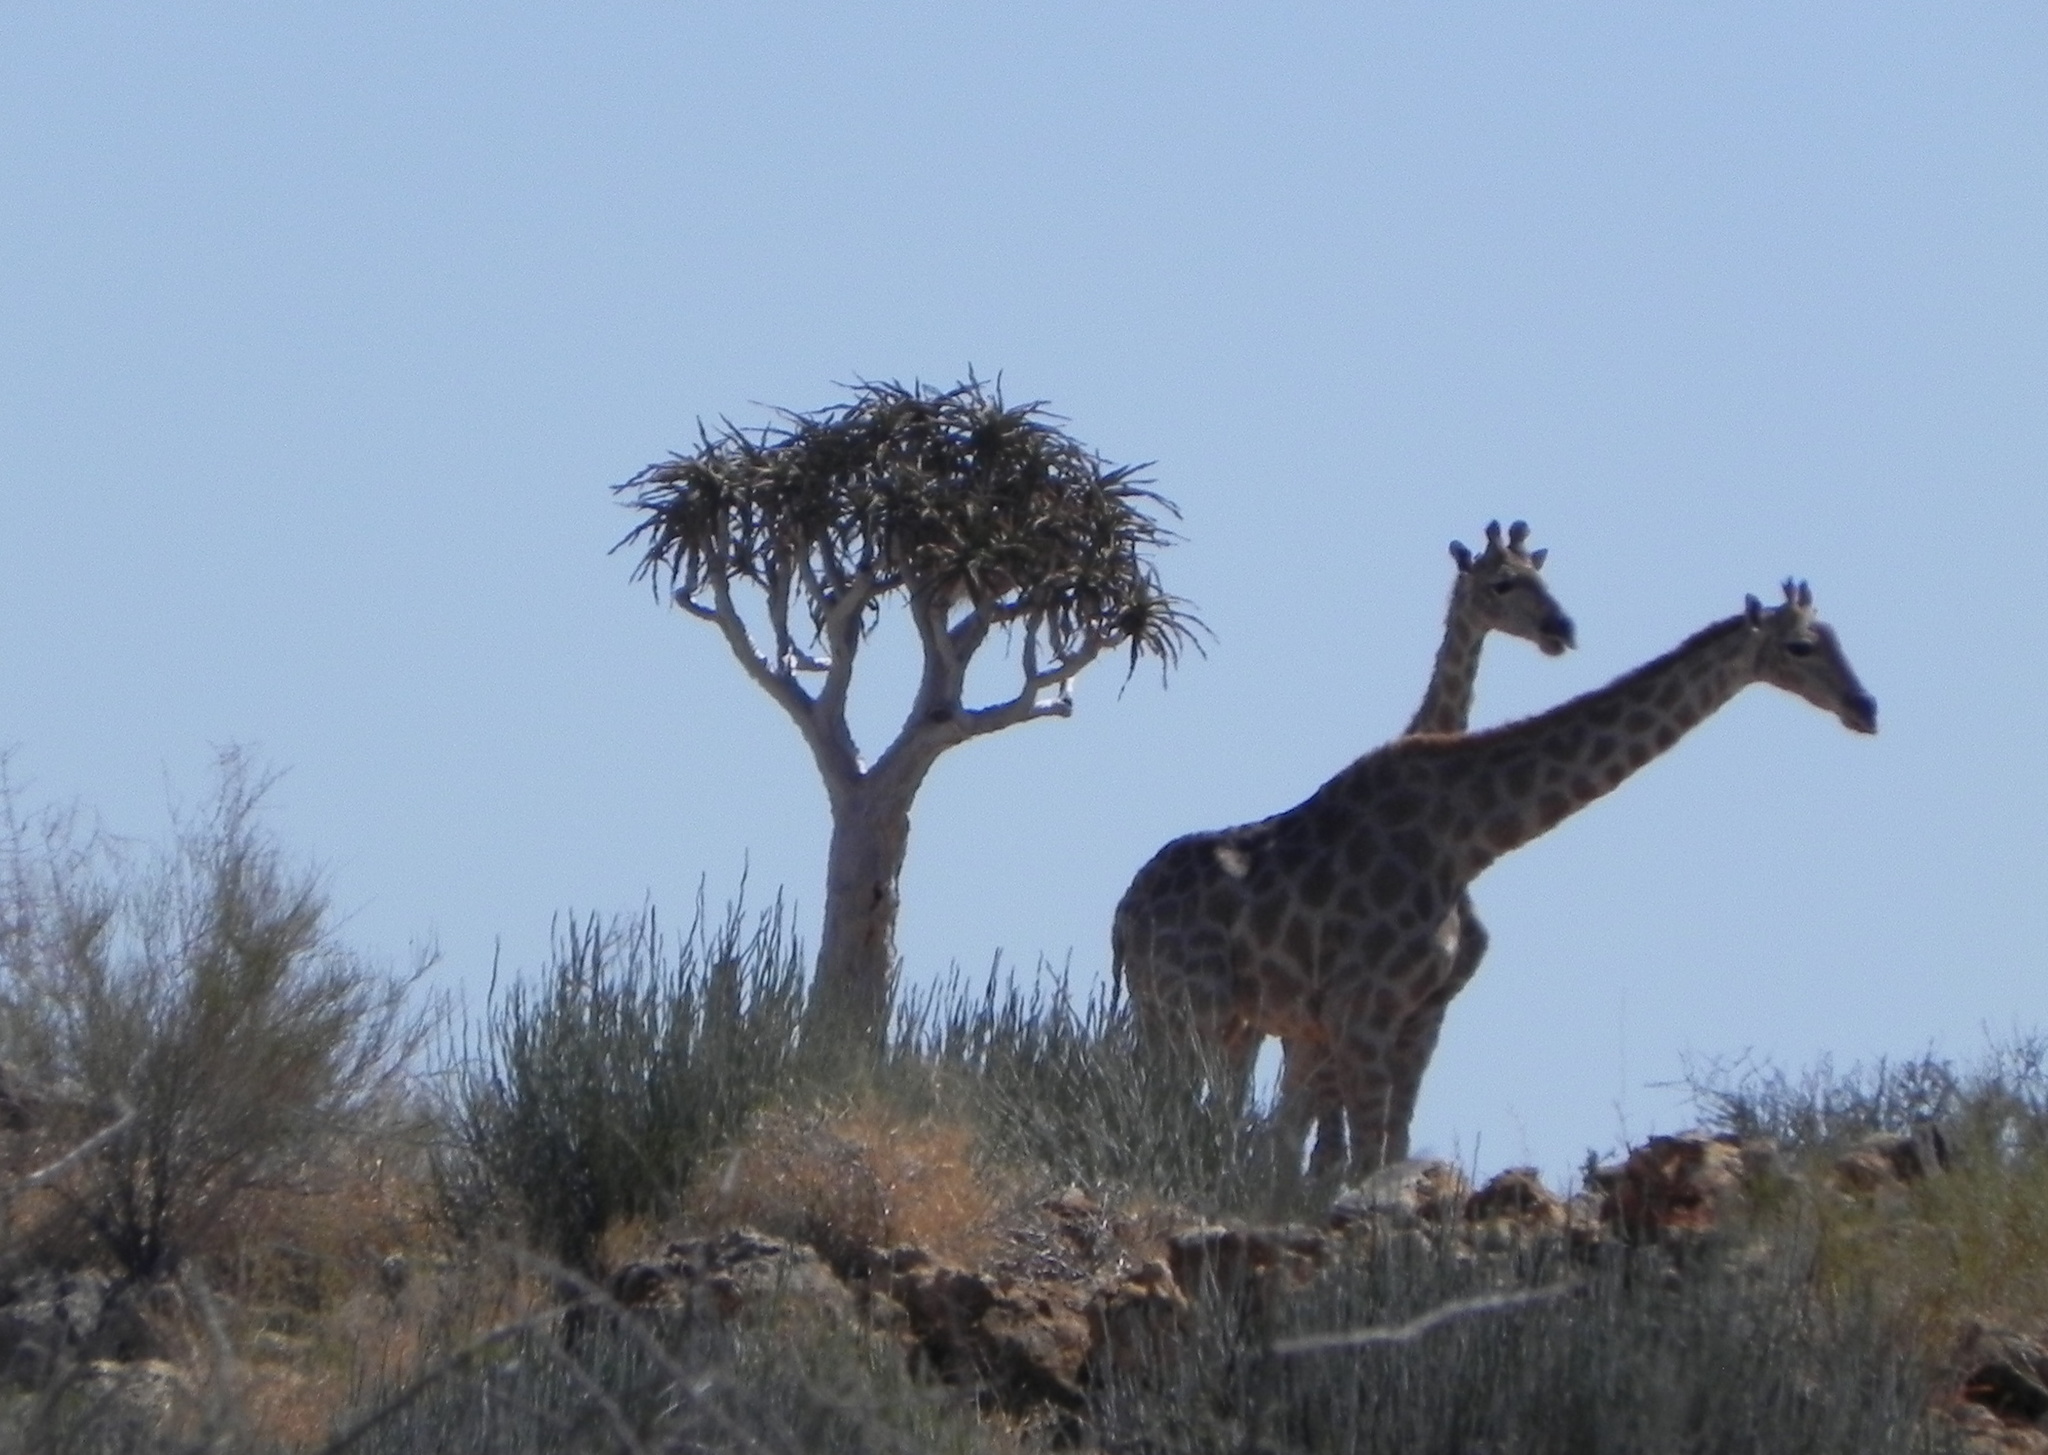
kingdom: Animalia
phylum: Chordata
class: Mammalia
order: Artiodactyla
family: Giraffidae
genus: Giraffa
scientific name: Giraffa giraffa
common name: Southern giraffe
